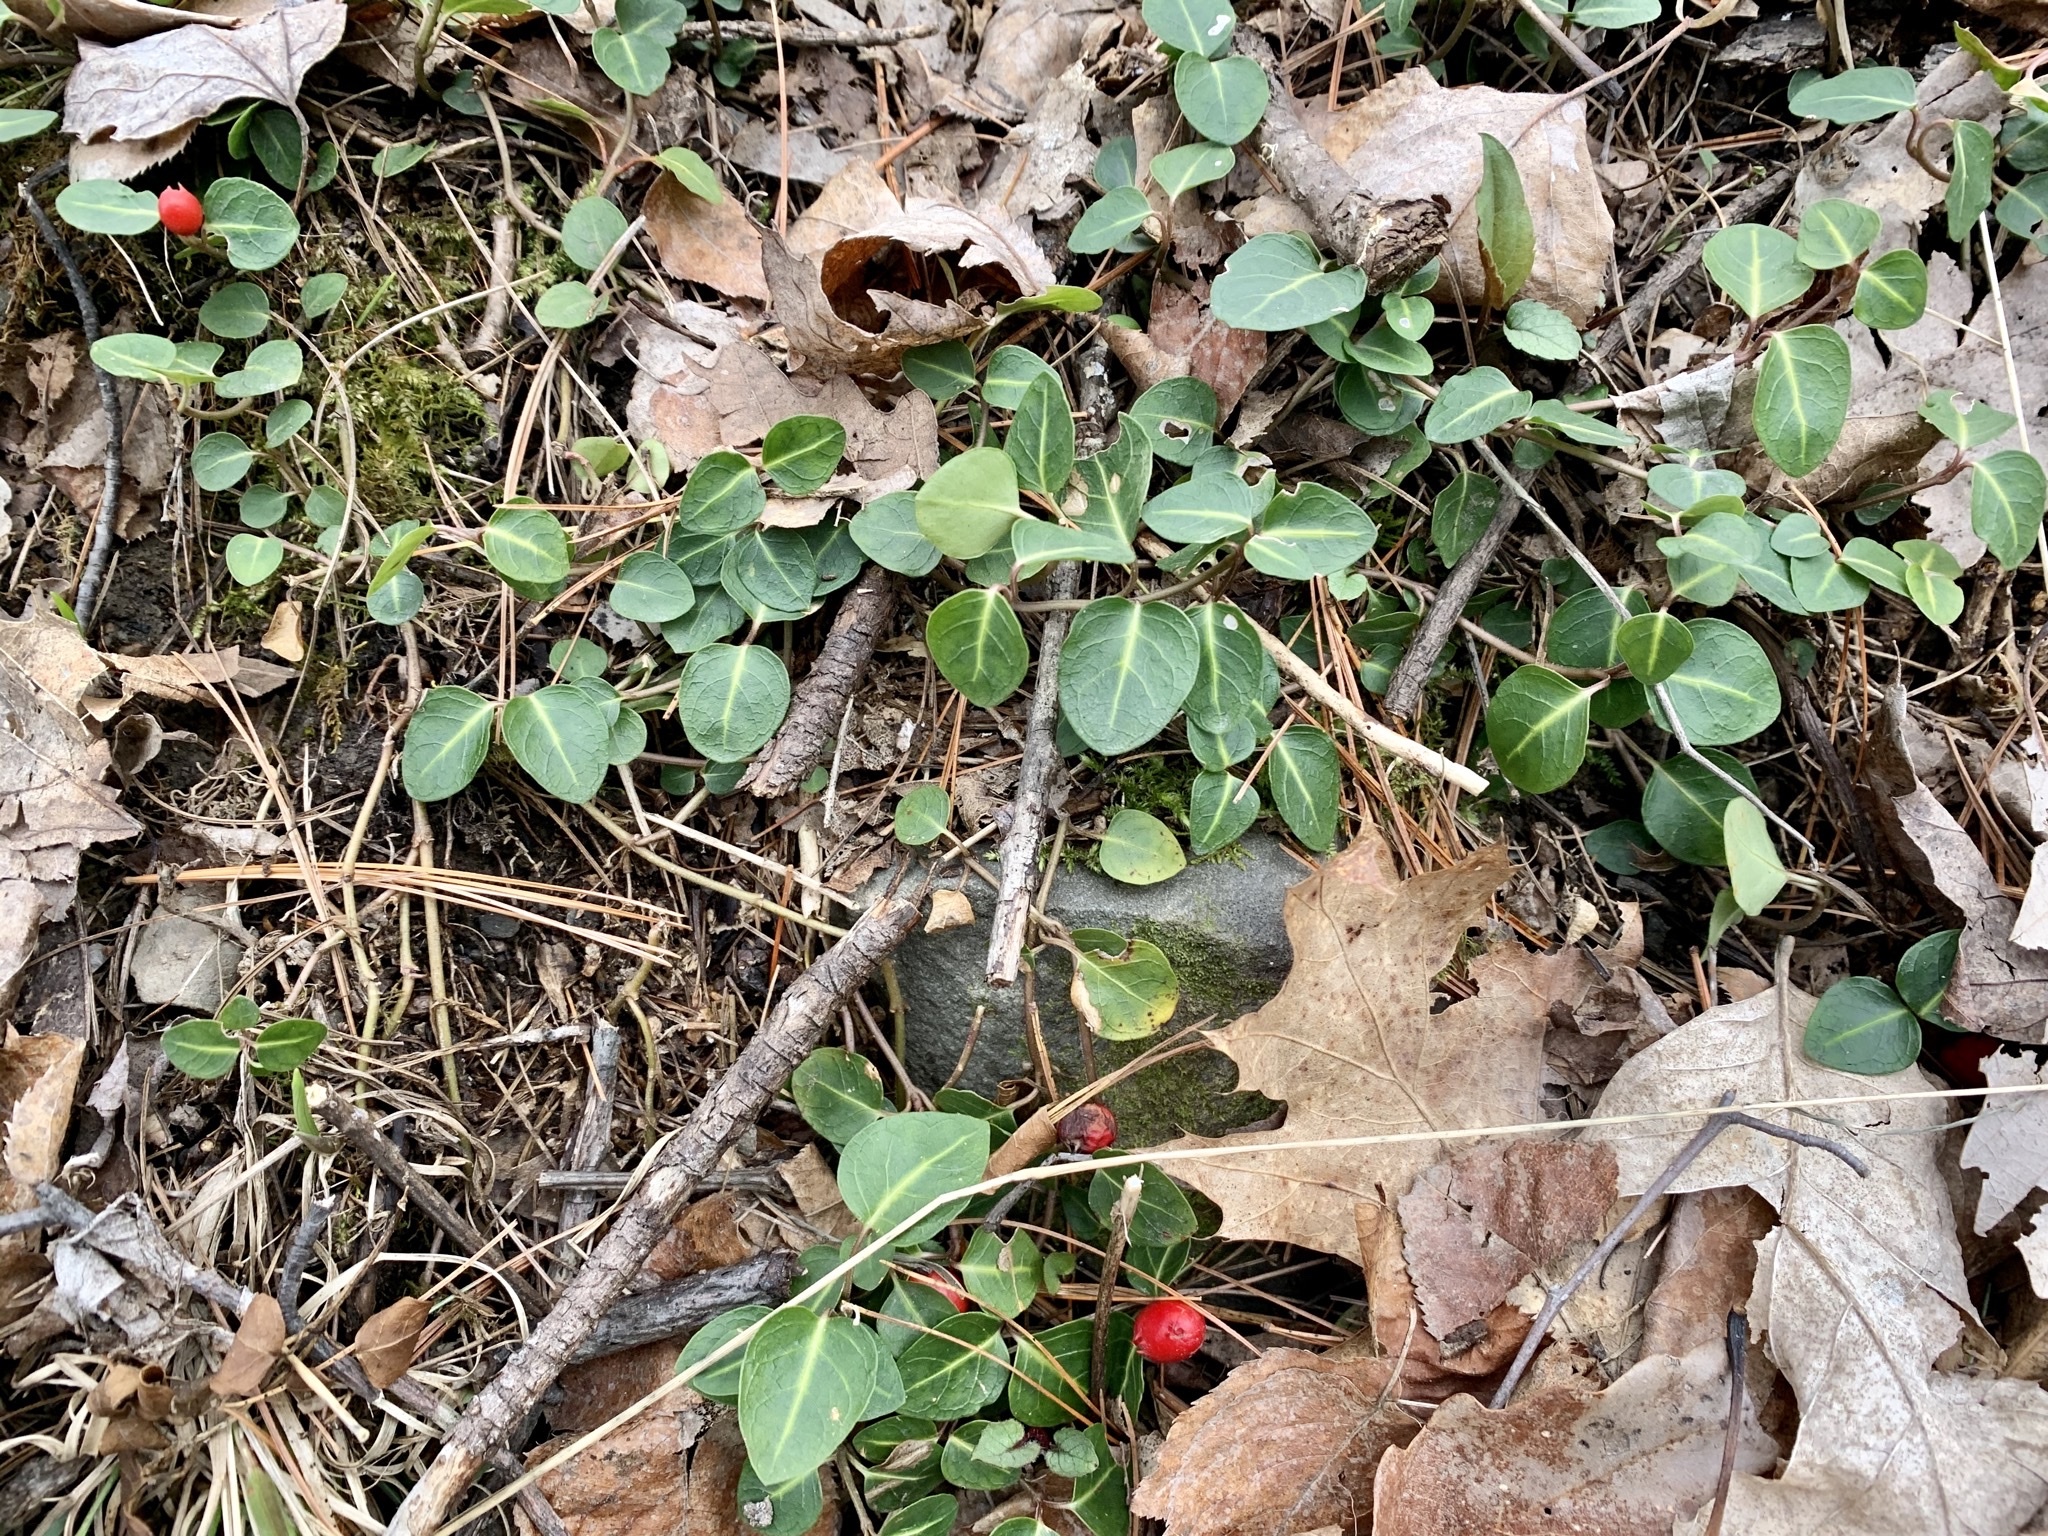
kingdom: Plantae
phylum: Tracheophyta
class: Magnoliopsida
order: Gentianales
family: Rubiaceae
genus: Mitchella
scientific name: Mitchella repens
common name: Partridge-berry
